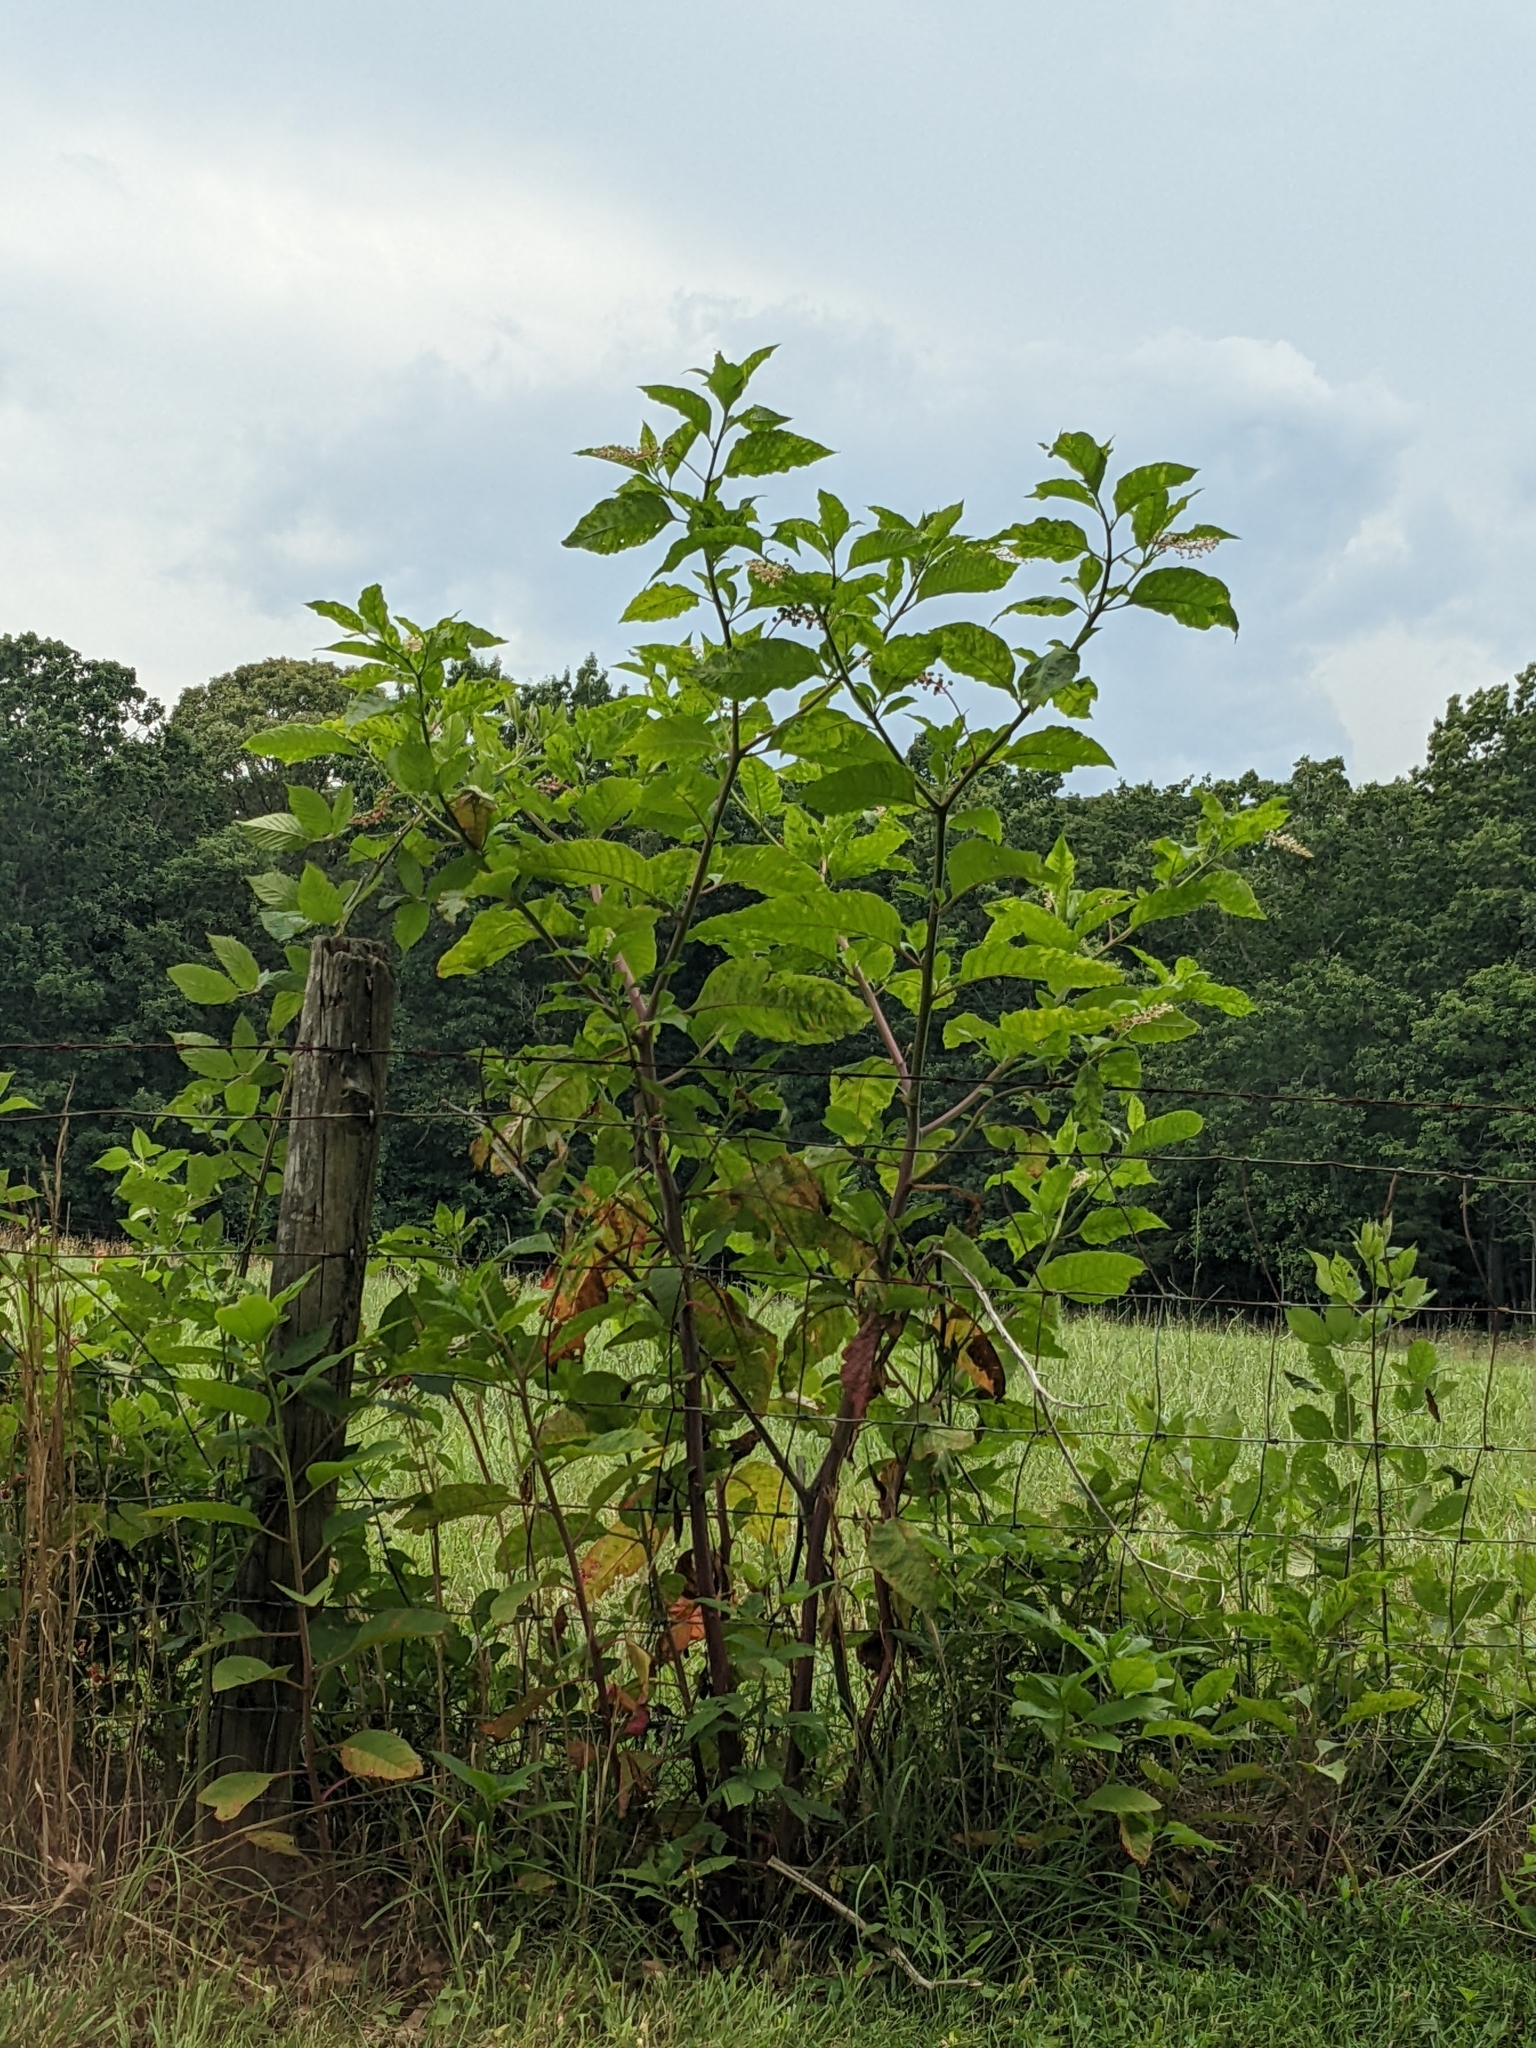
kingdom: Plantae
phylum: Tracheophyta
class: Magnoliopsida
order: Caryophyllales
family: Phytolaccaceae
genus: Phytolacca
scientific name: Phytolacca americana
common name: American pokeweed
